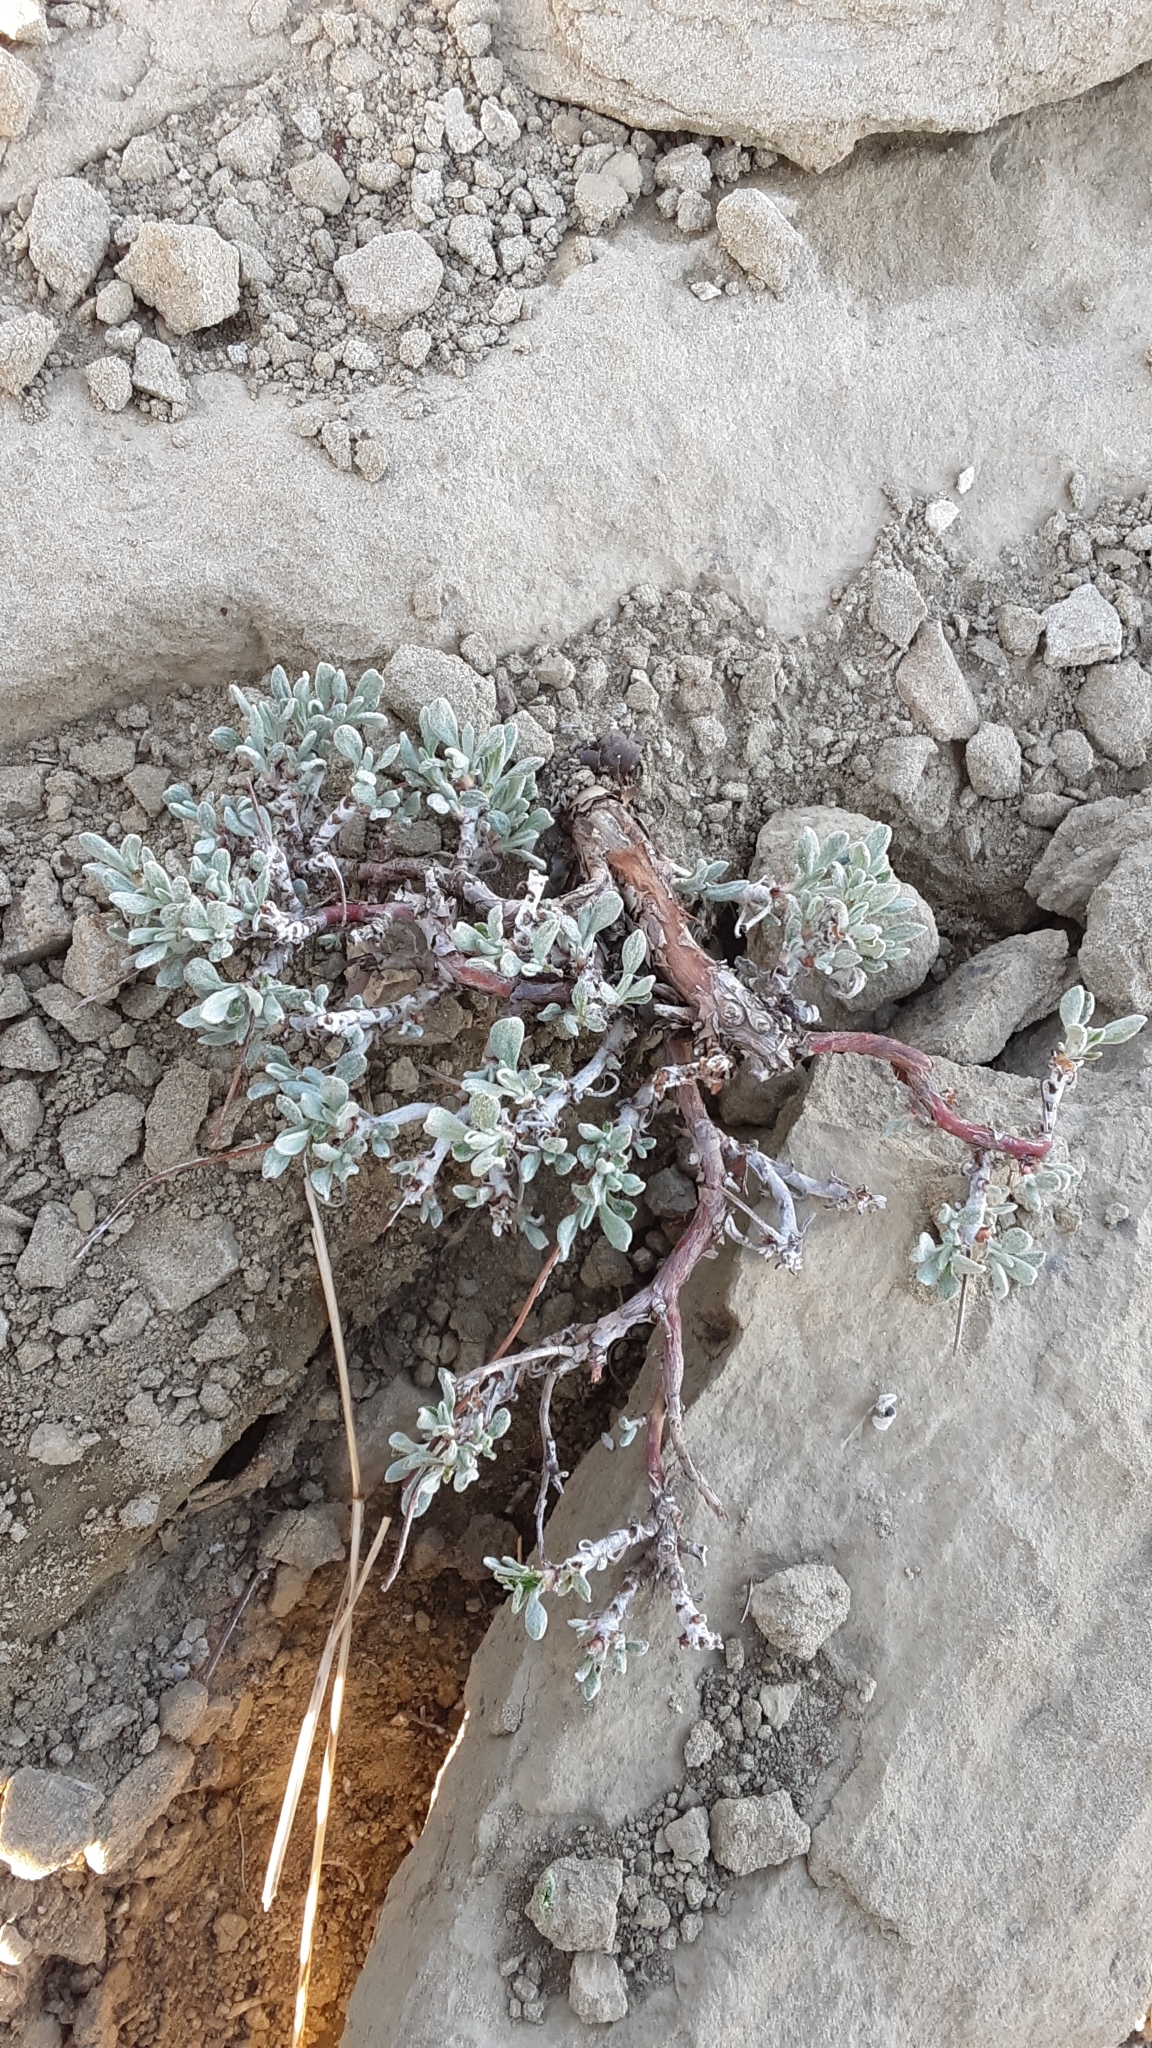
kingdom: Plantae
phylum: Tracheophyta
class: Magnoliopsida
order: Caryophyllales
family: Polygonaceae
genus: Eriogonum
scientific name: Eriogonum ovalifolium
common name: Cushion buckwheat
